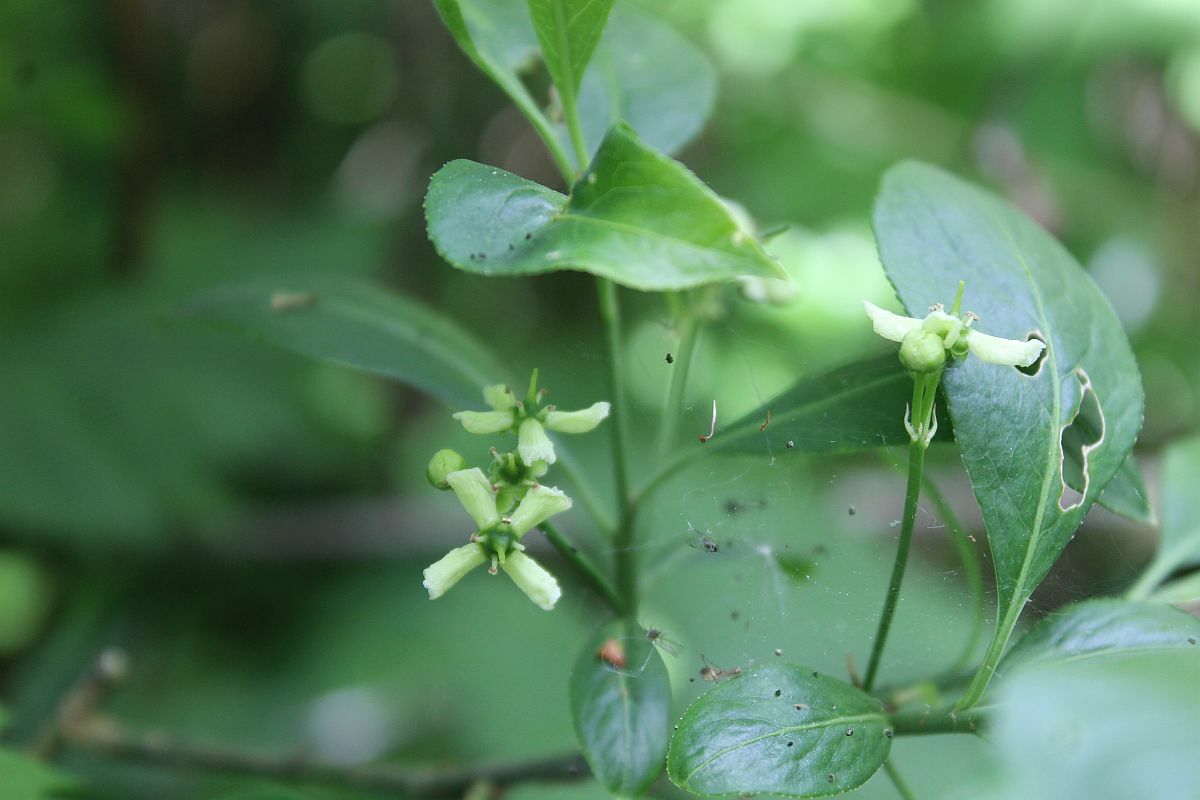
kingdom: Plantae
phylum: Tracheophyta
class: Magnoliopsida
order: Celastrales
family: Celastraceae
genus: Euonymus
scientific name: Euonymus europaeus
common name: Spindle
